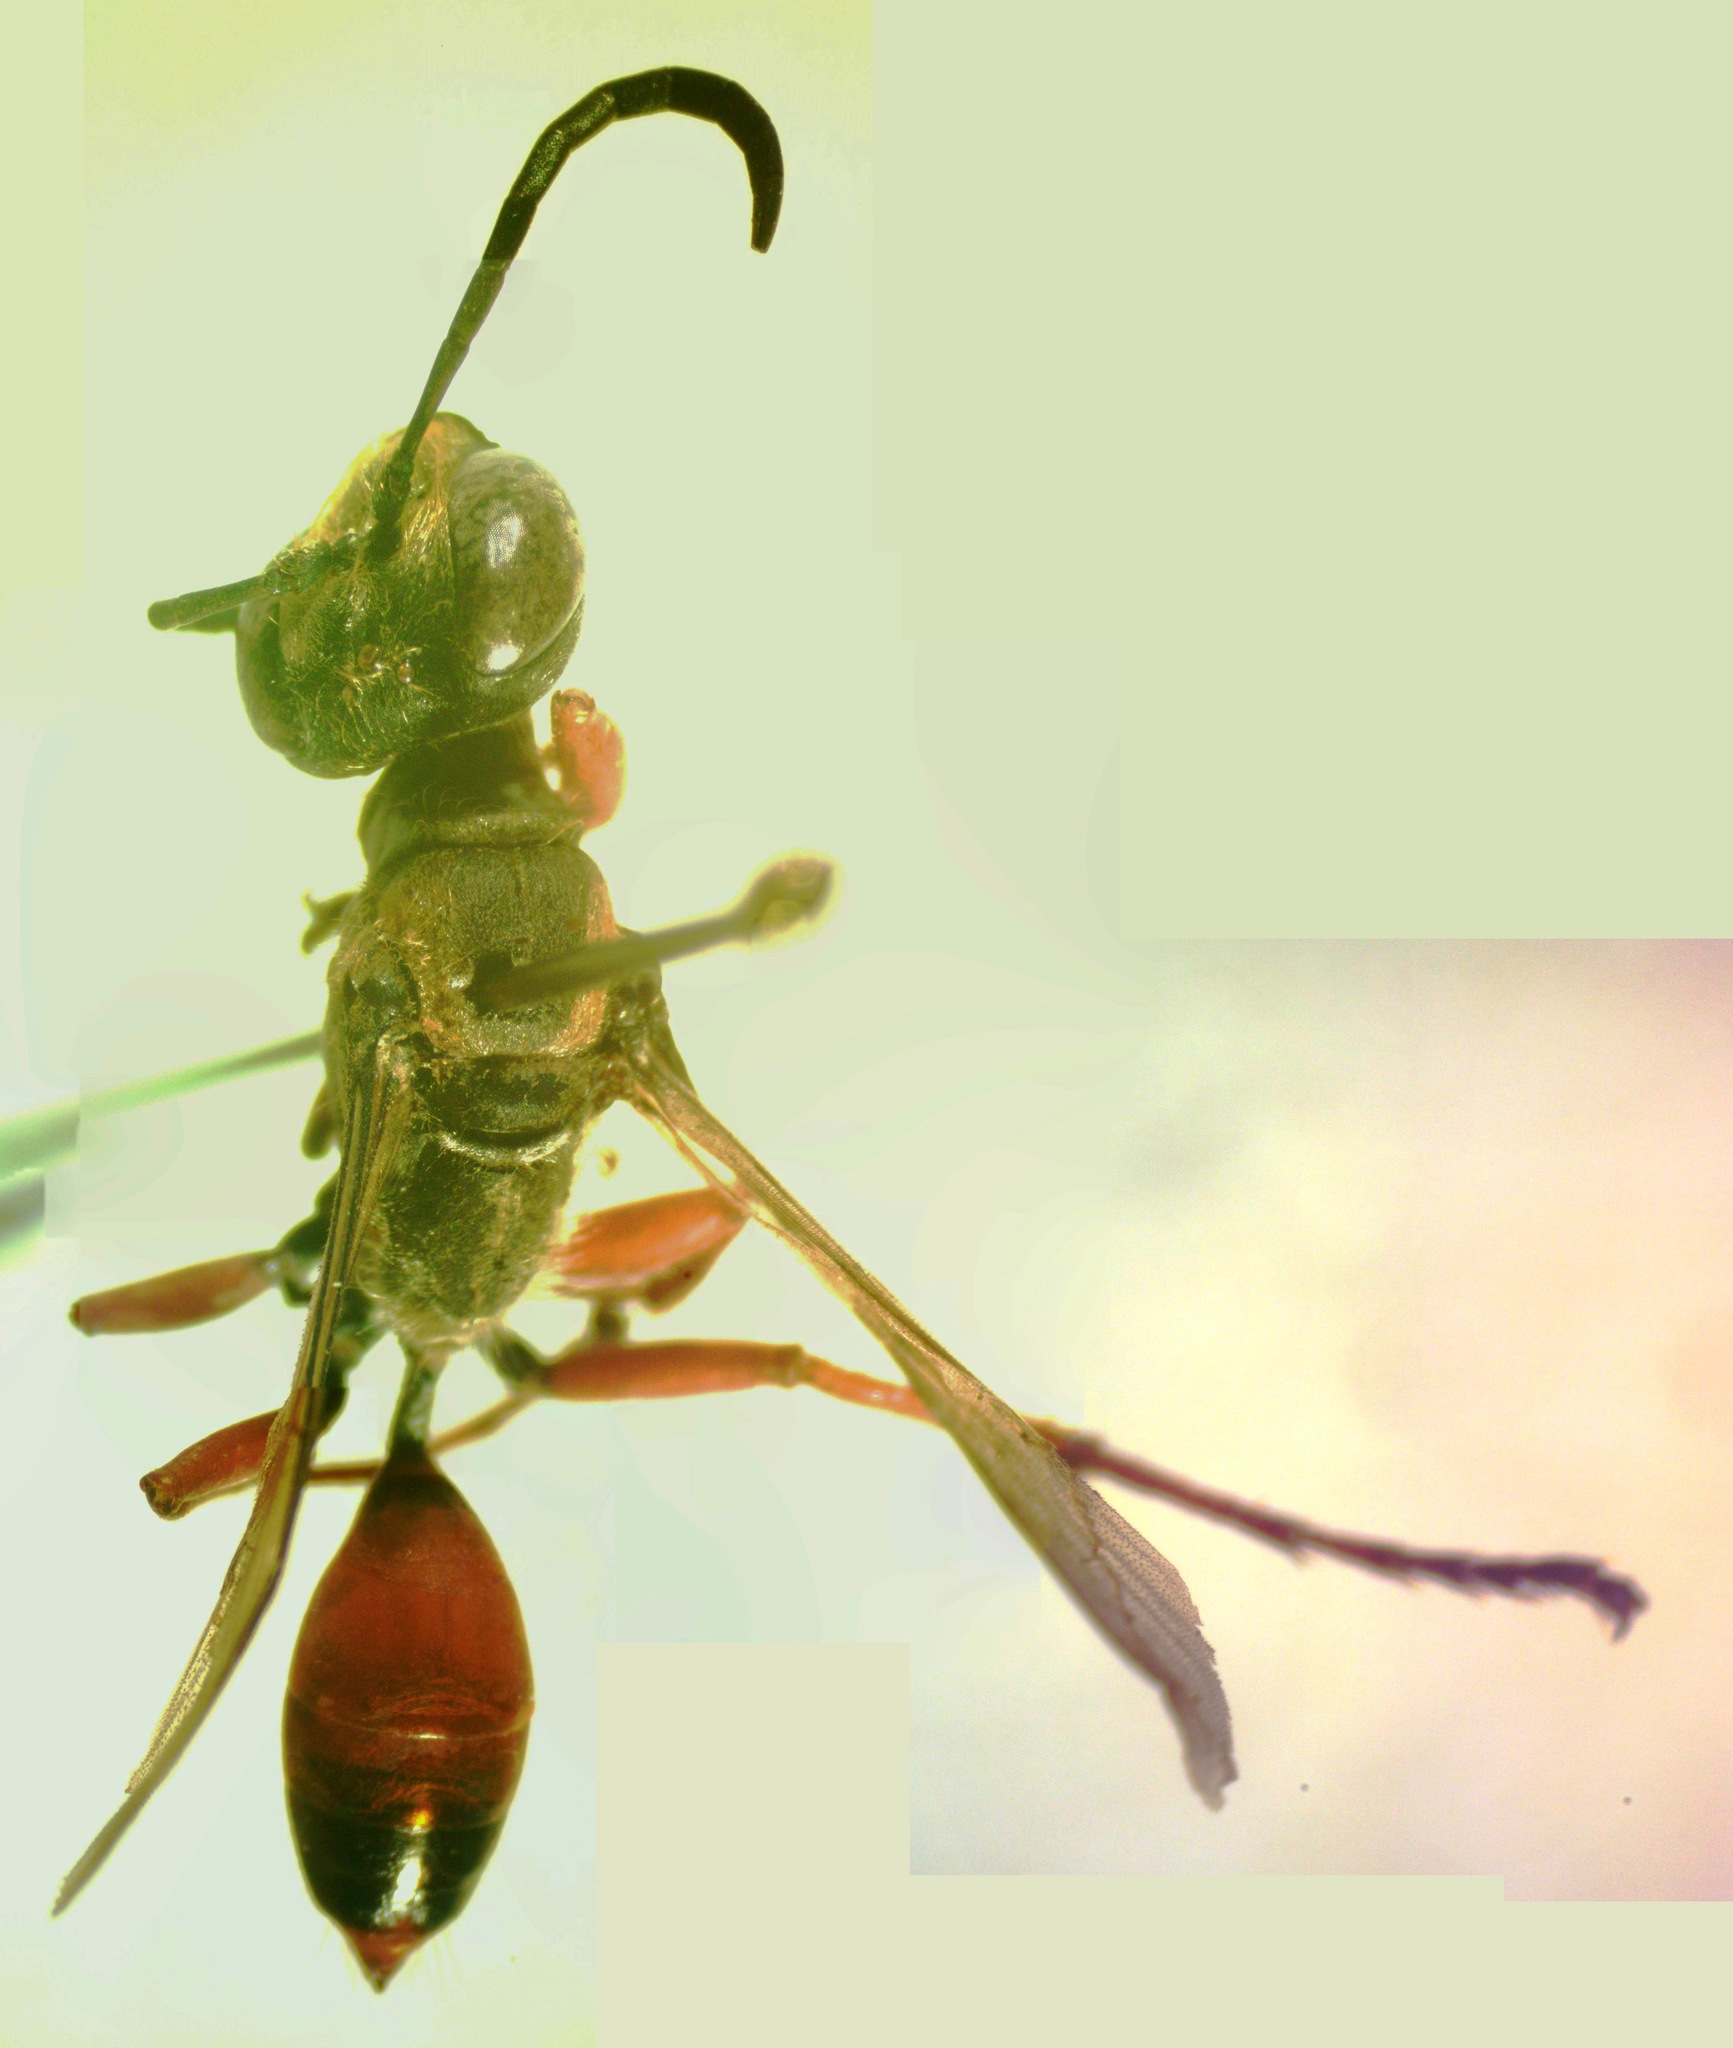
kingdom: Animalia
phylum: Arthropoda
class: Insecta
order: Hymenoptera
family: Sphecidae
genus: Sphex
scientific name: Sphex dorsalis
